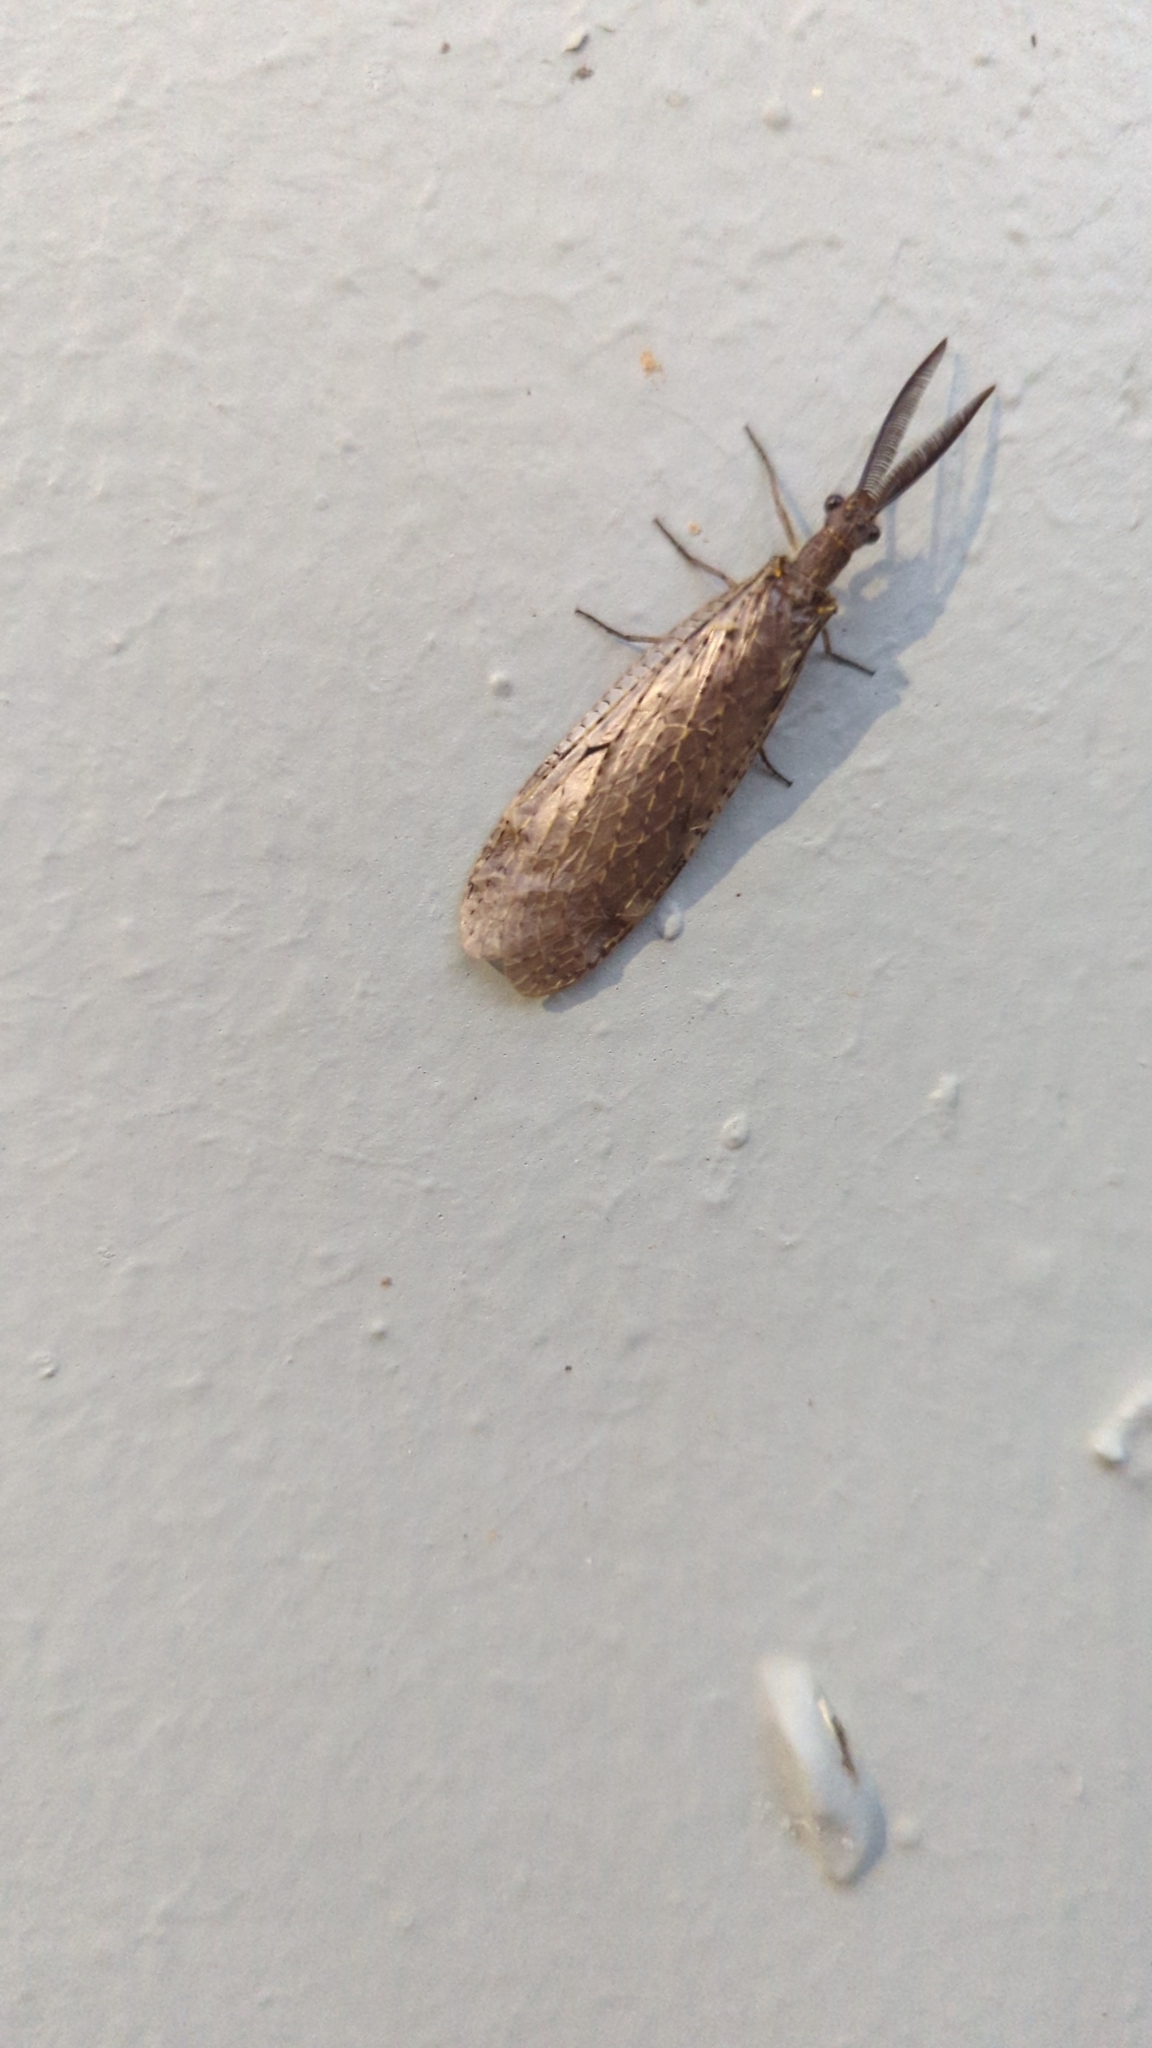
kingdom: Animalia
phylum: Arthropoda
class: Insecta
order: Megaloptera
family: Corydalidae
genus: Chauliodes
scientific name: Chauliodes rastricornis
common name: Spring fishfly
